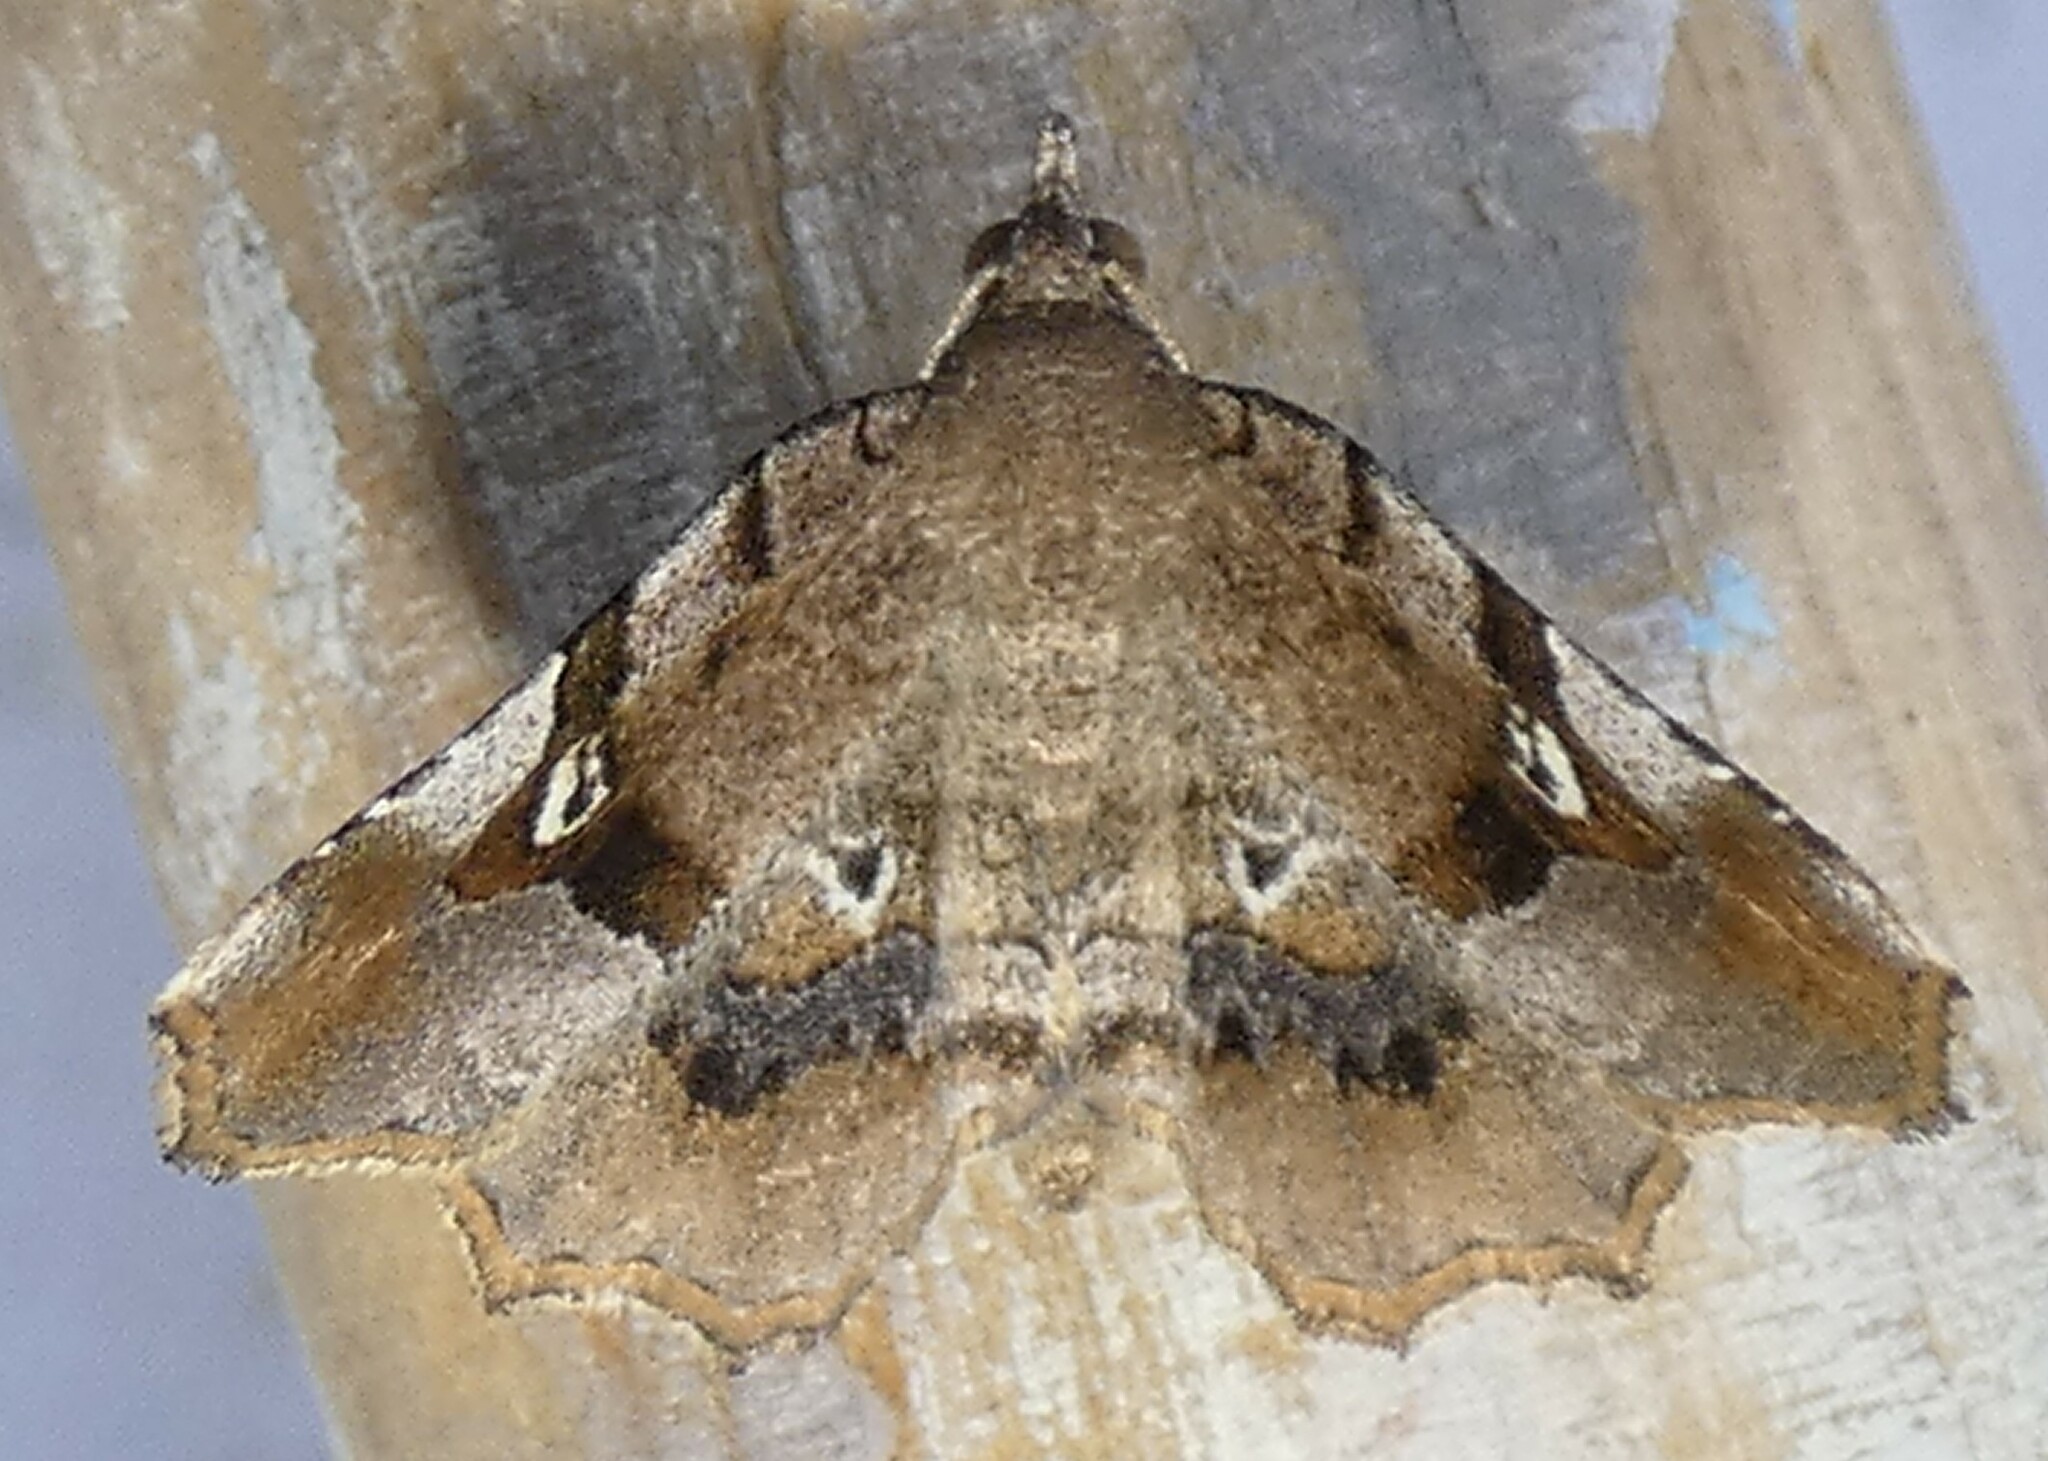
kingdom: Animalia
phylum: Arthropoda
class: Insecta
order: Lepidoptera
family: Erebidae
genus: Pangrapta
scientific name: Pangrapta decoralis
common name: Decorated owlet
